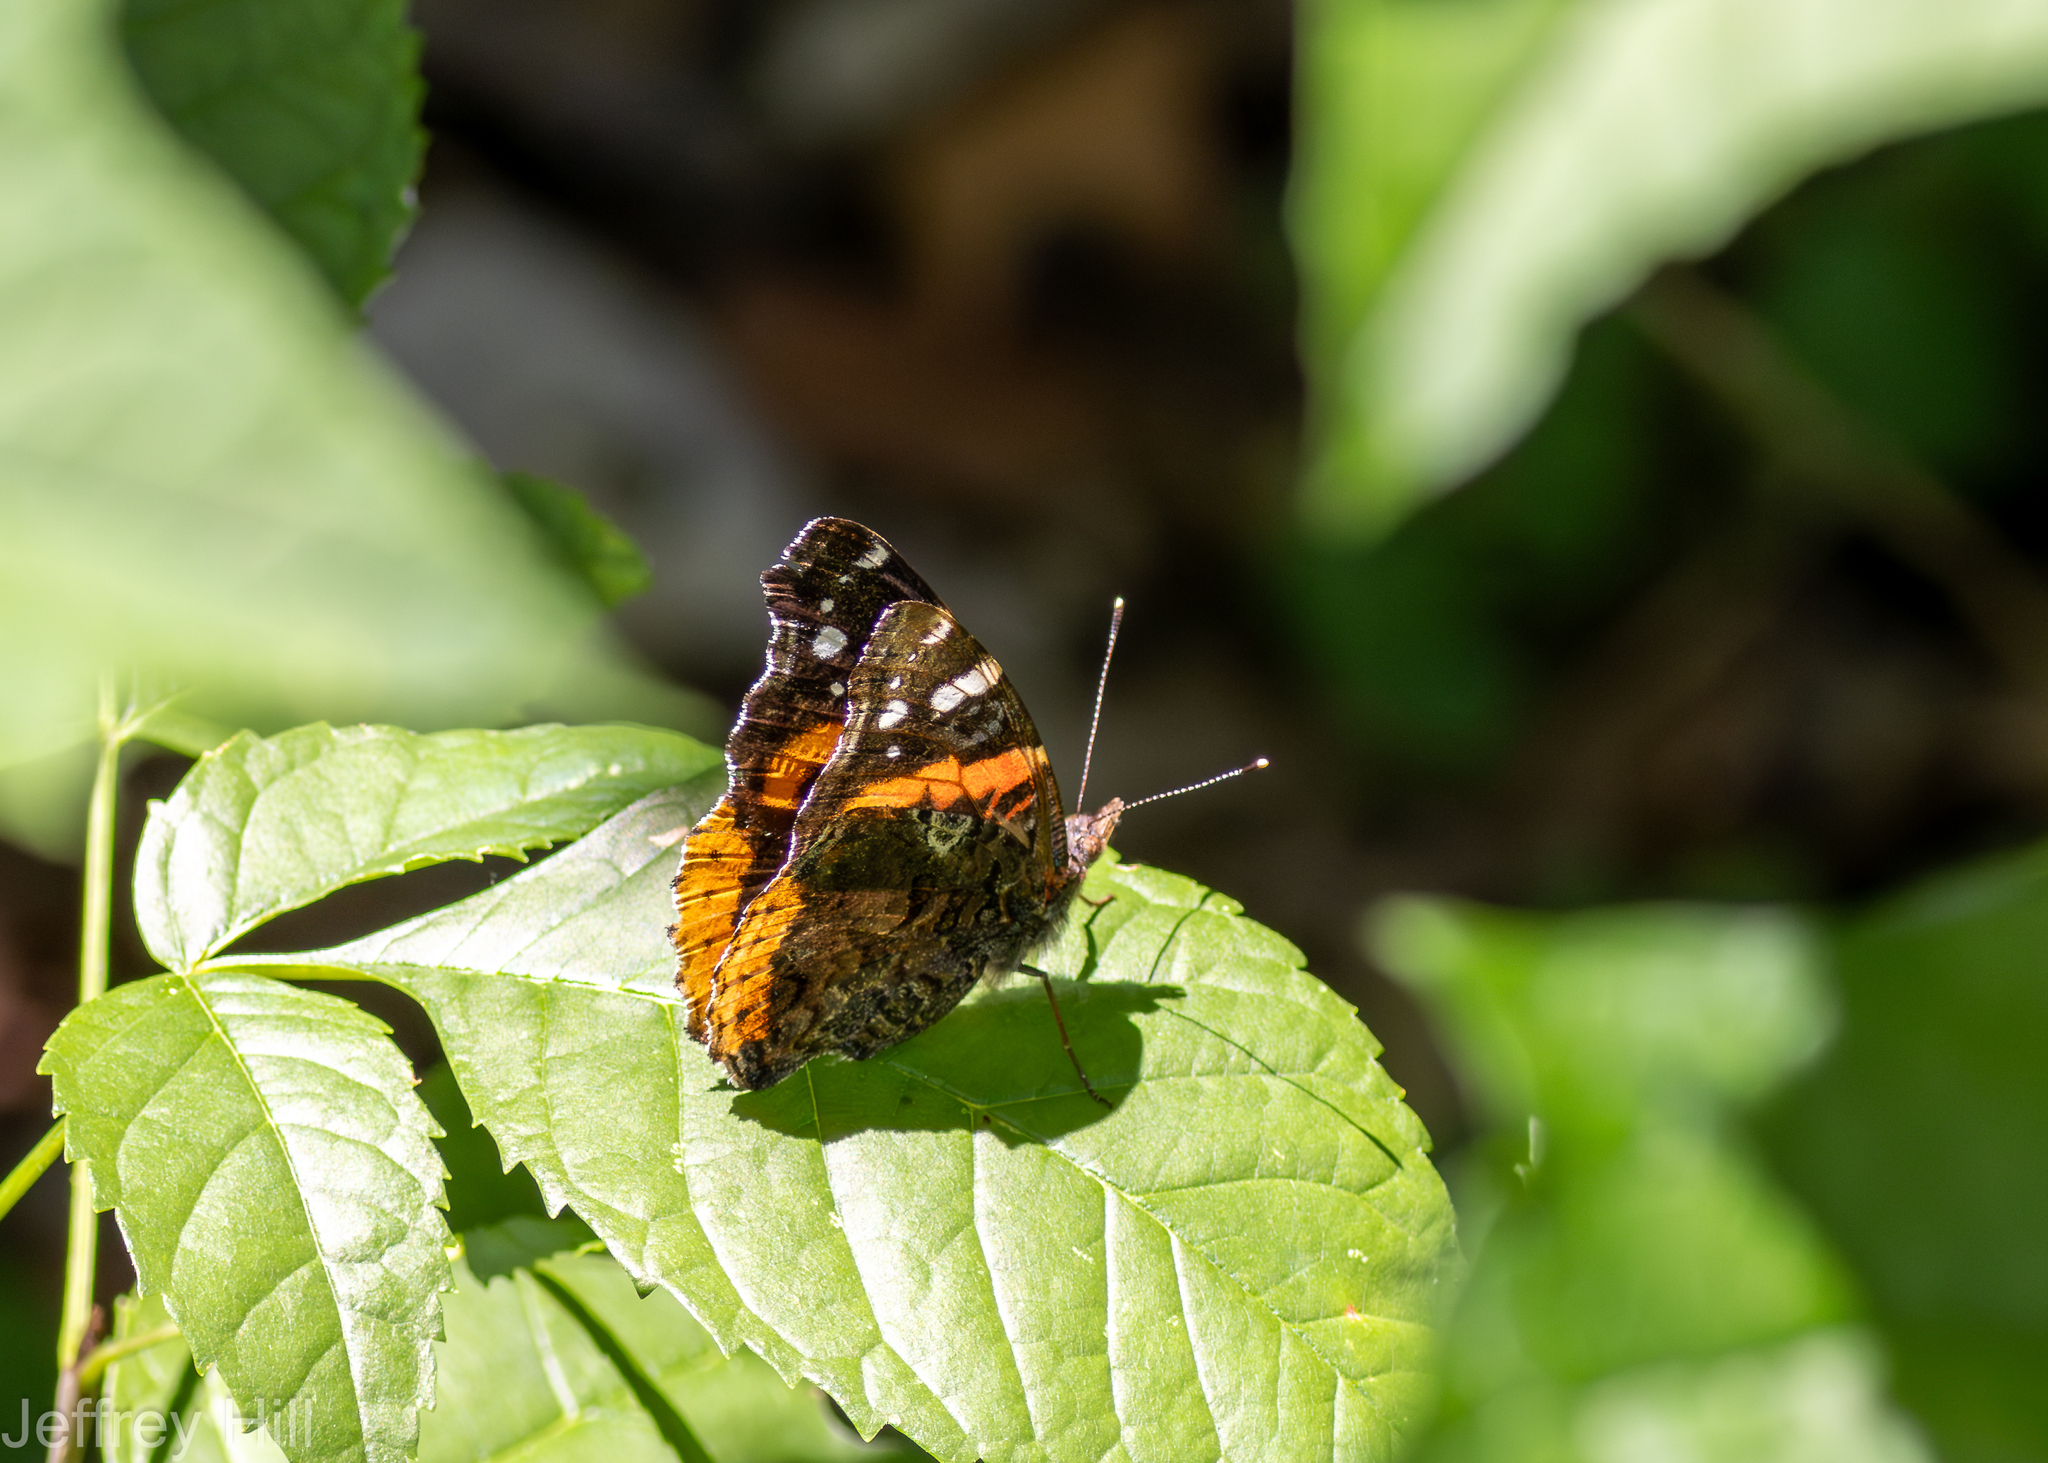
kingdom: Animalia
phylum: Arthropoda
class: Insecta
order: Lepidoptera
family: Nymphalidae
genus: Vanessa
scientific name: Vanessa atalanta
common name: Red admiral
